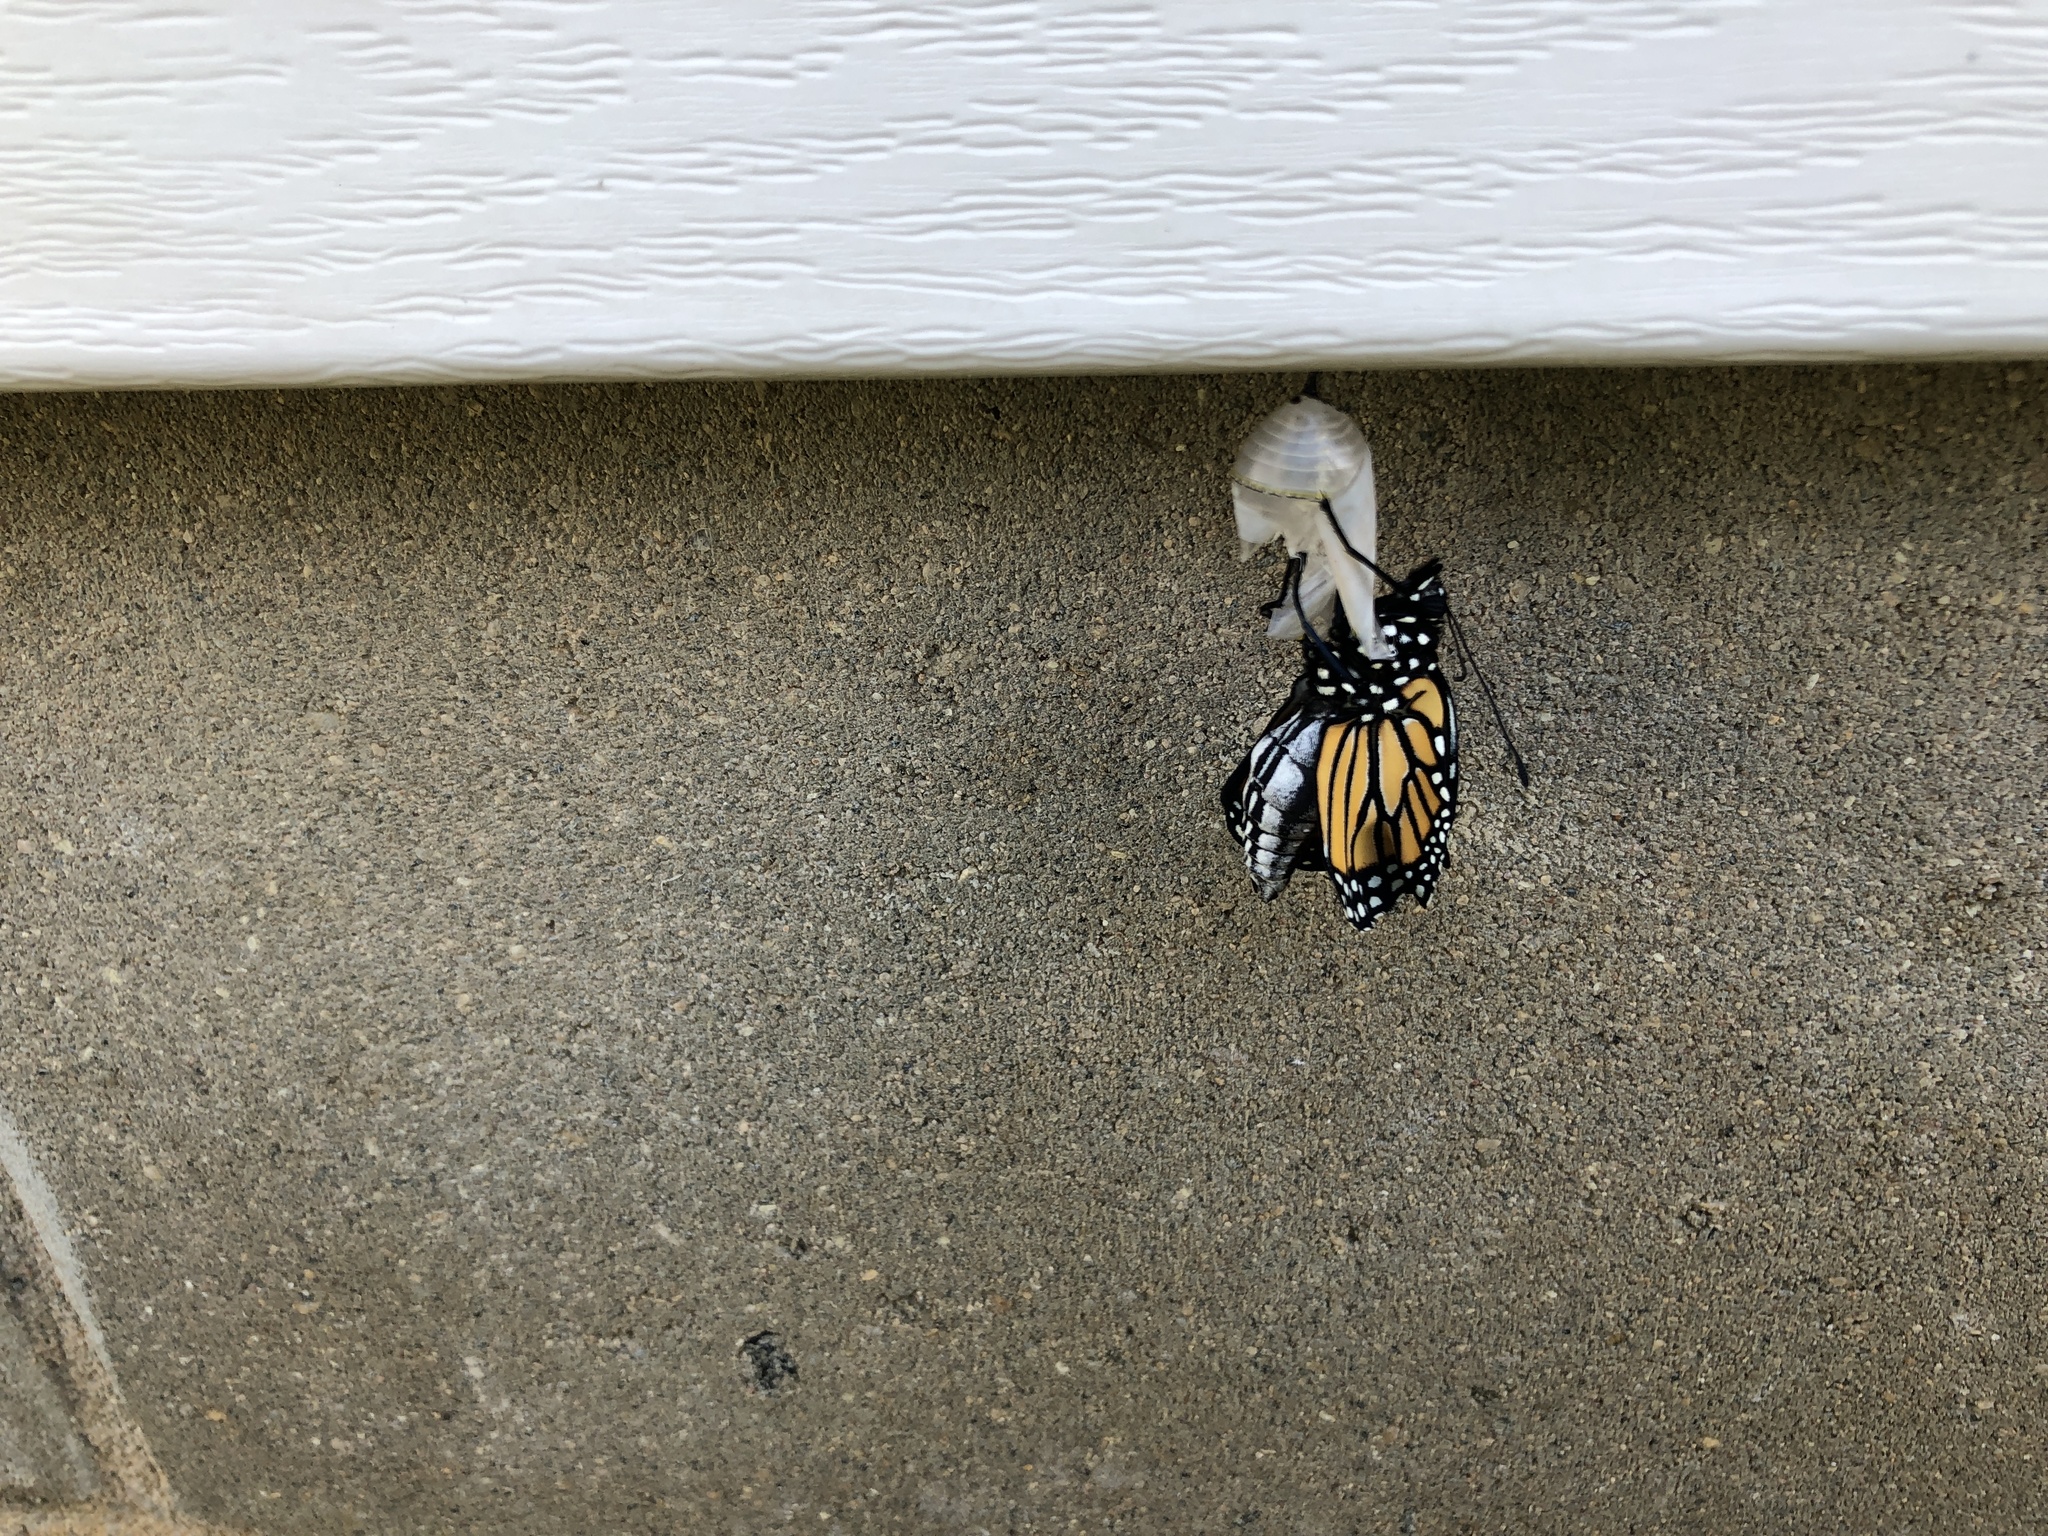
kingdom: Animalia
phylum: Arthropoda
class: Insecta
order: Lepidoptera
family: Nymphalidae
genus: Danaus
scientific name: Danaus plexippus
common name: Monarch
